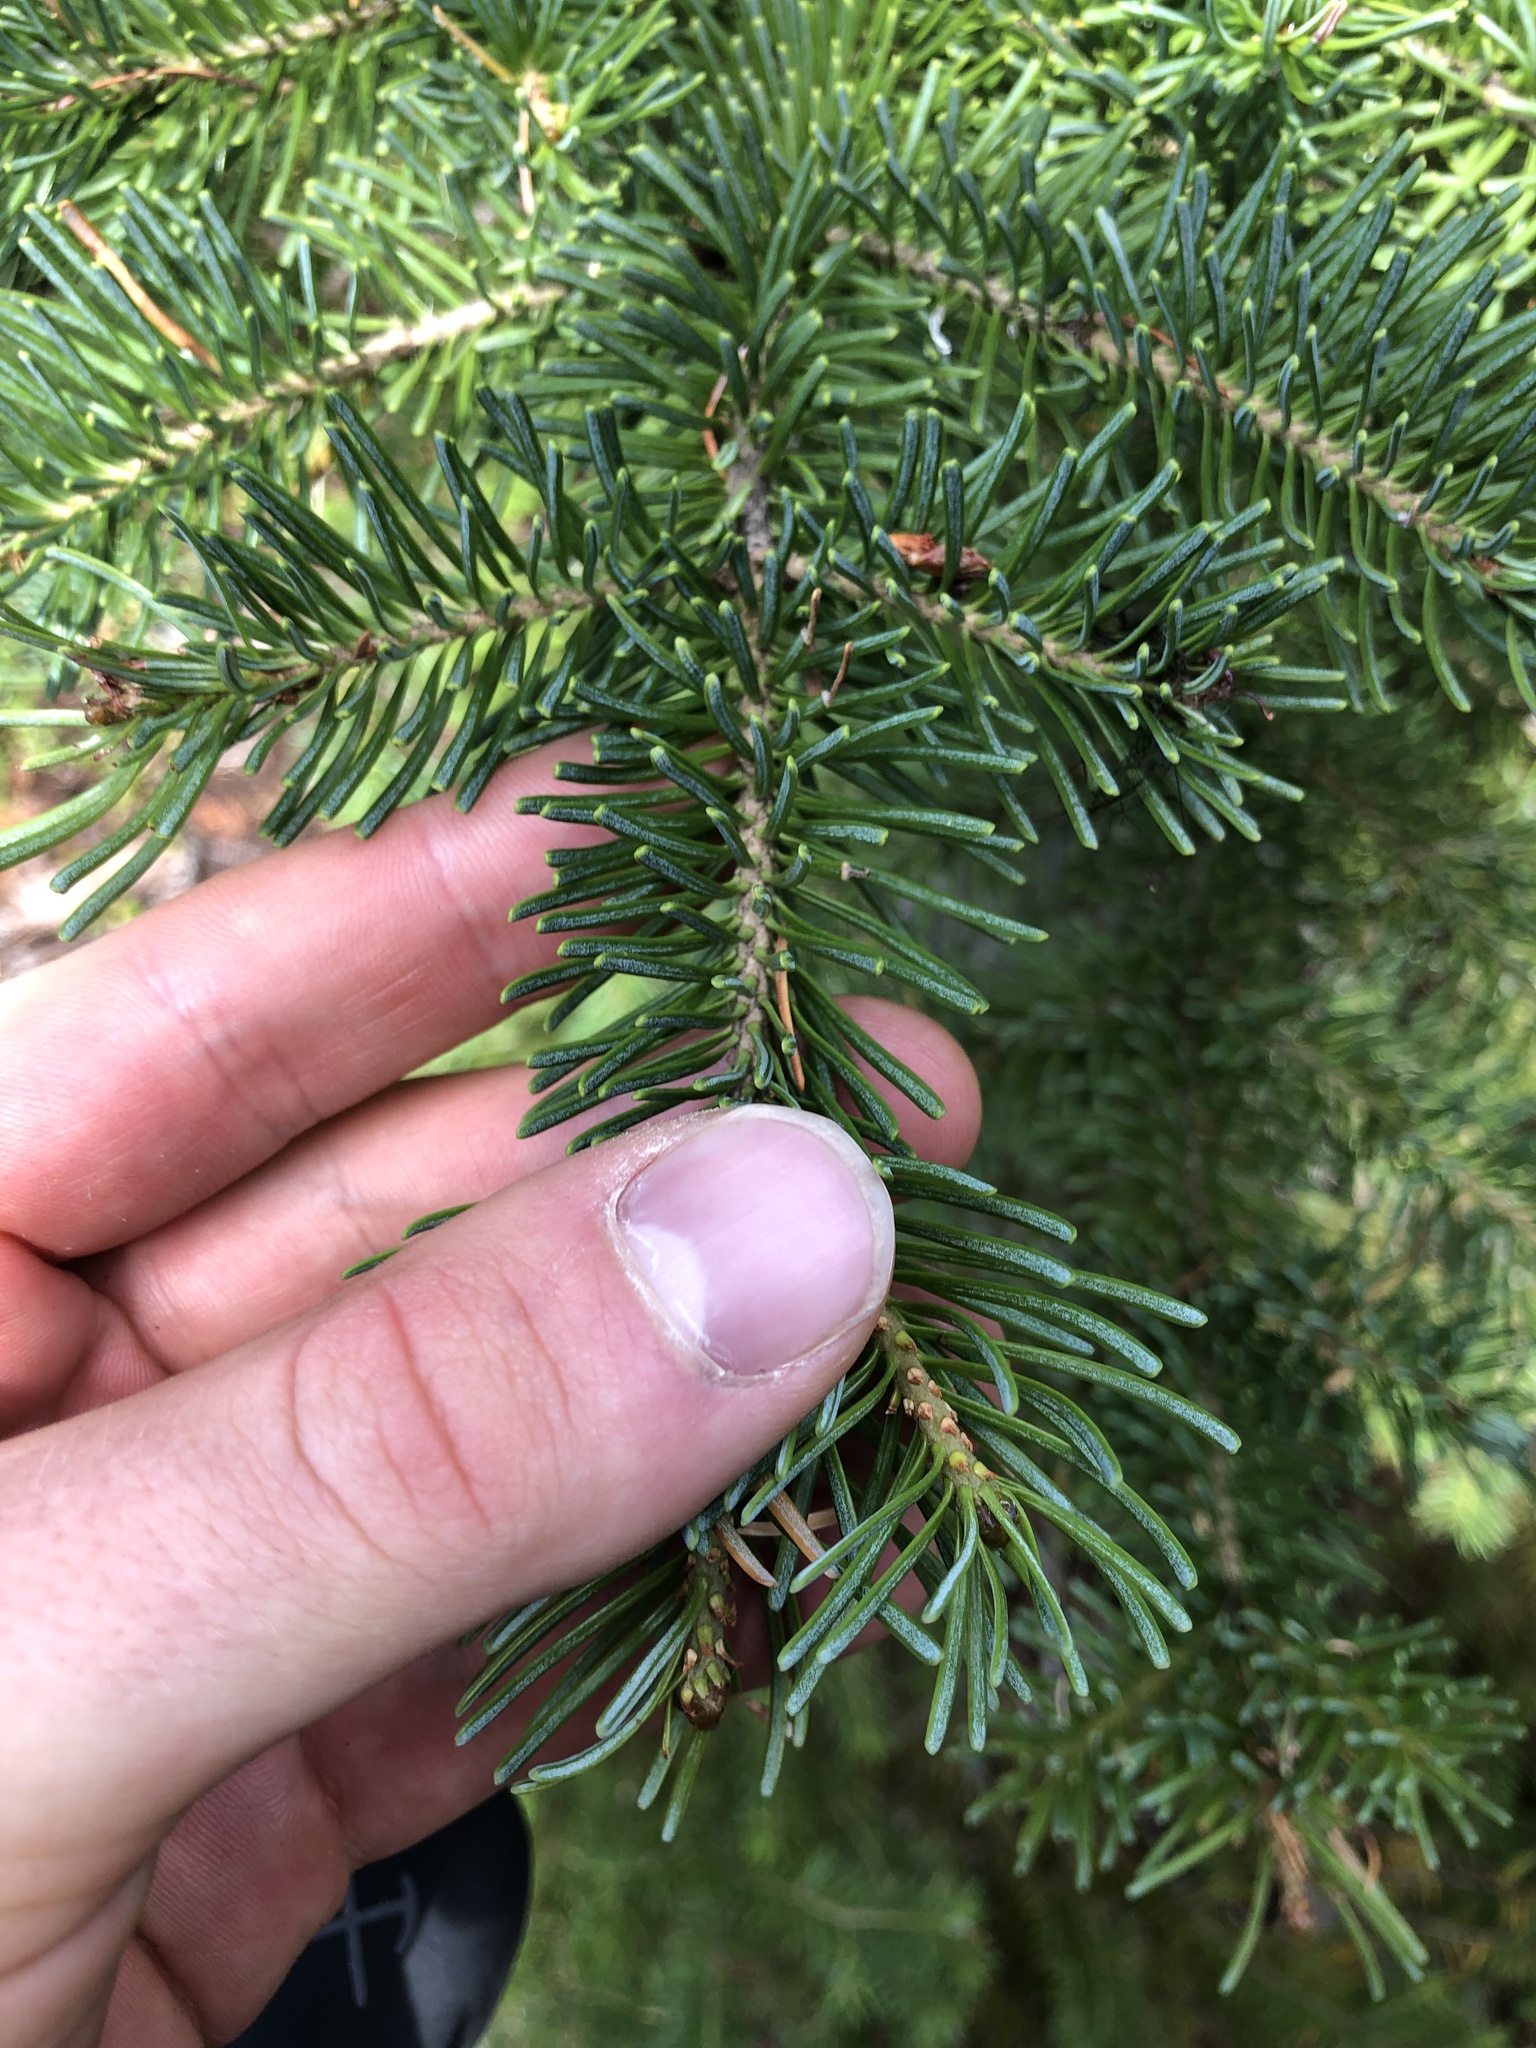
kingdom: Plantae
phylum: Tracheophyta
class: Pinopsida
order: Pinales
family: Pinaceae
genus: Abies
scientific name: Abies lasiocarpa
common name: Subalpine fir
